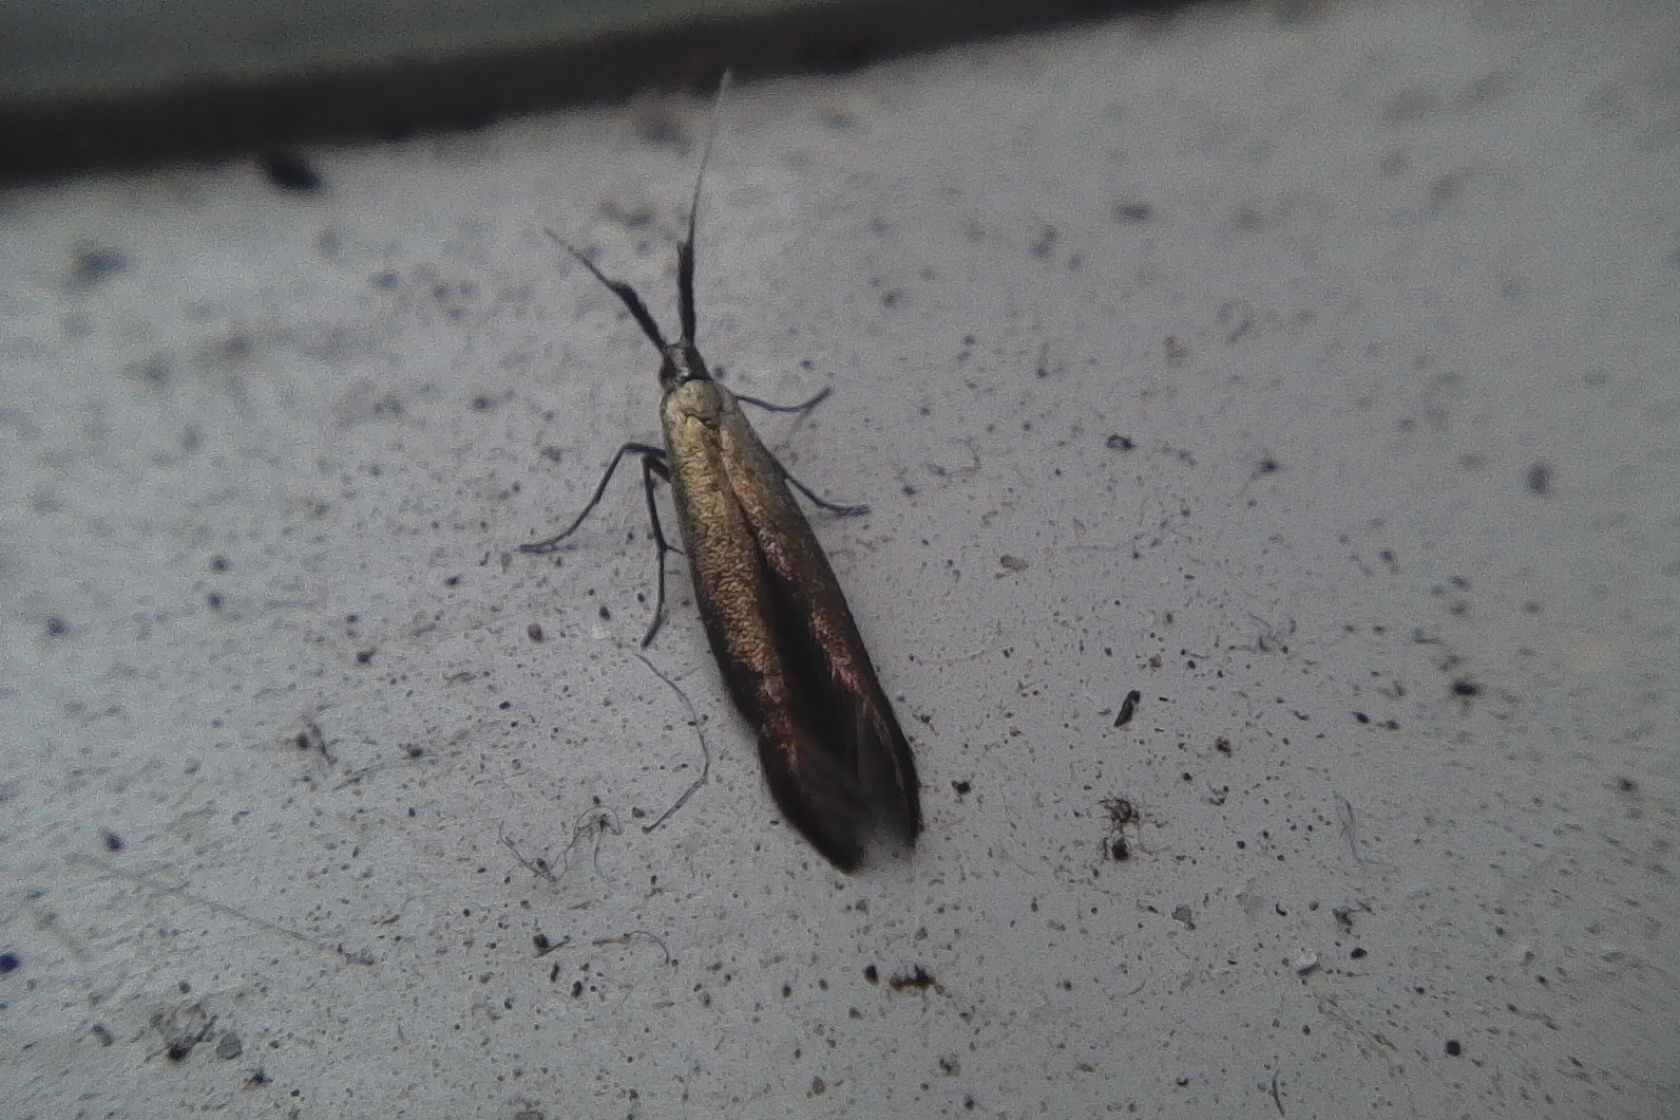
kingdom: Animalia
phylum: Arthropoda
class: Insecta
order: Lepidoptera
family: Coleophoridae
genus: Coleophora
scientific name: Coleophora mayrella
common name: Meadow case-bearer
